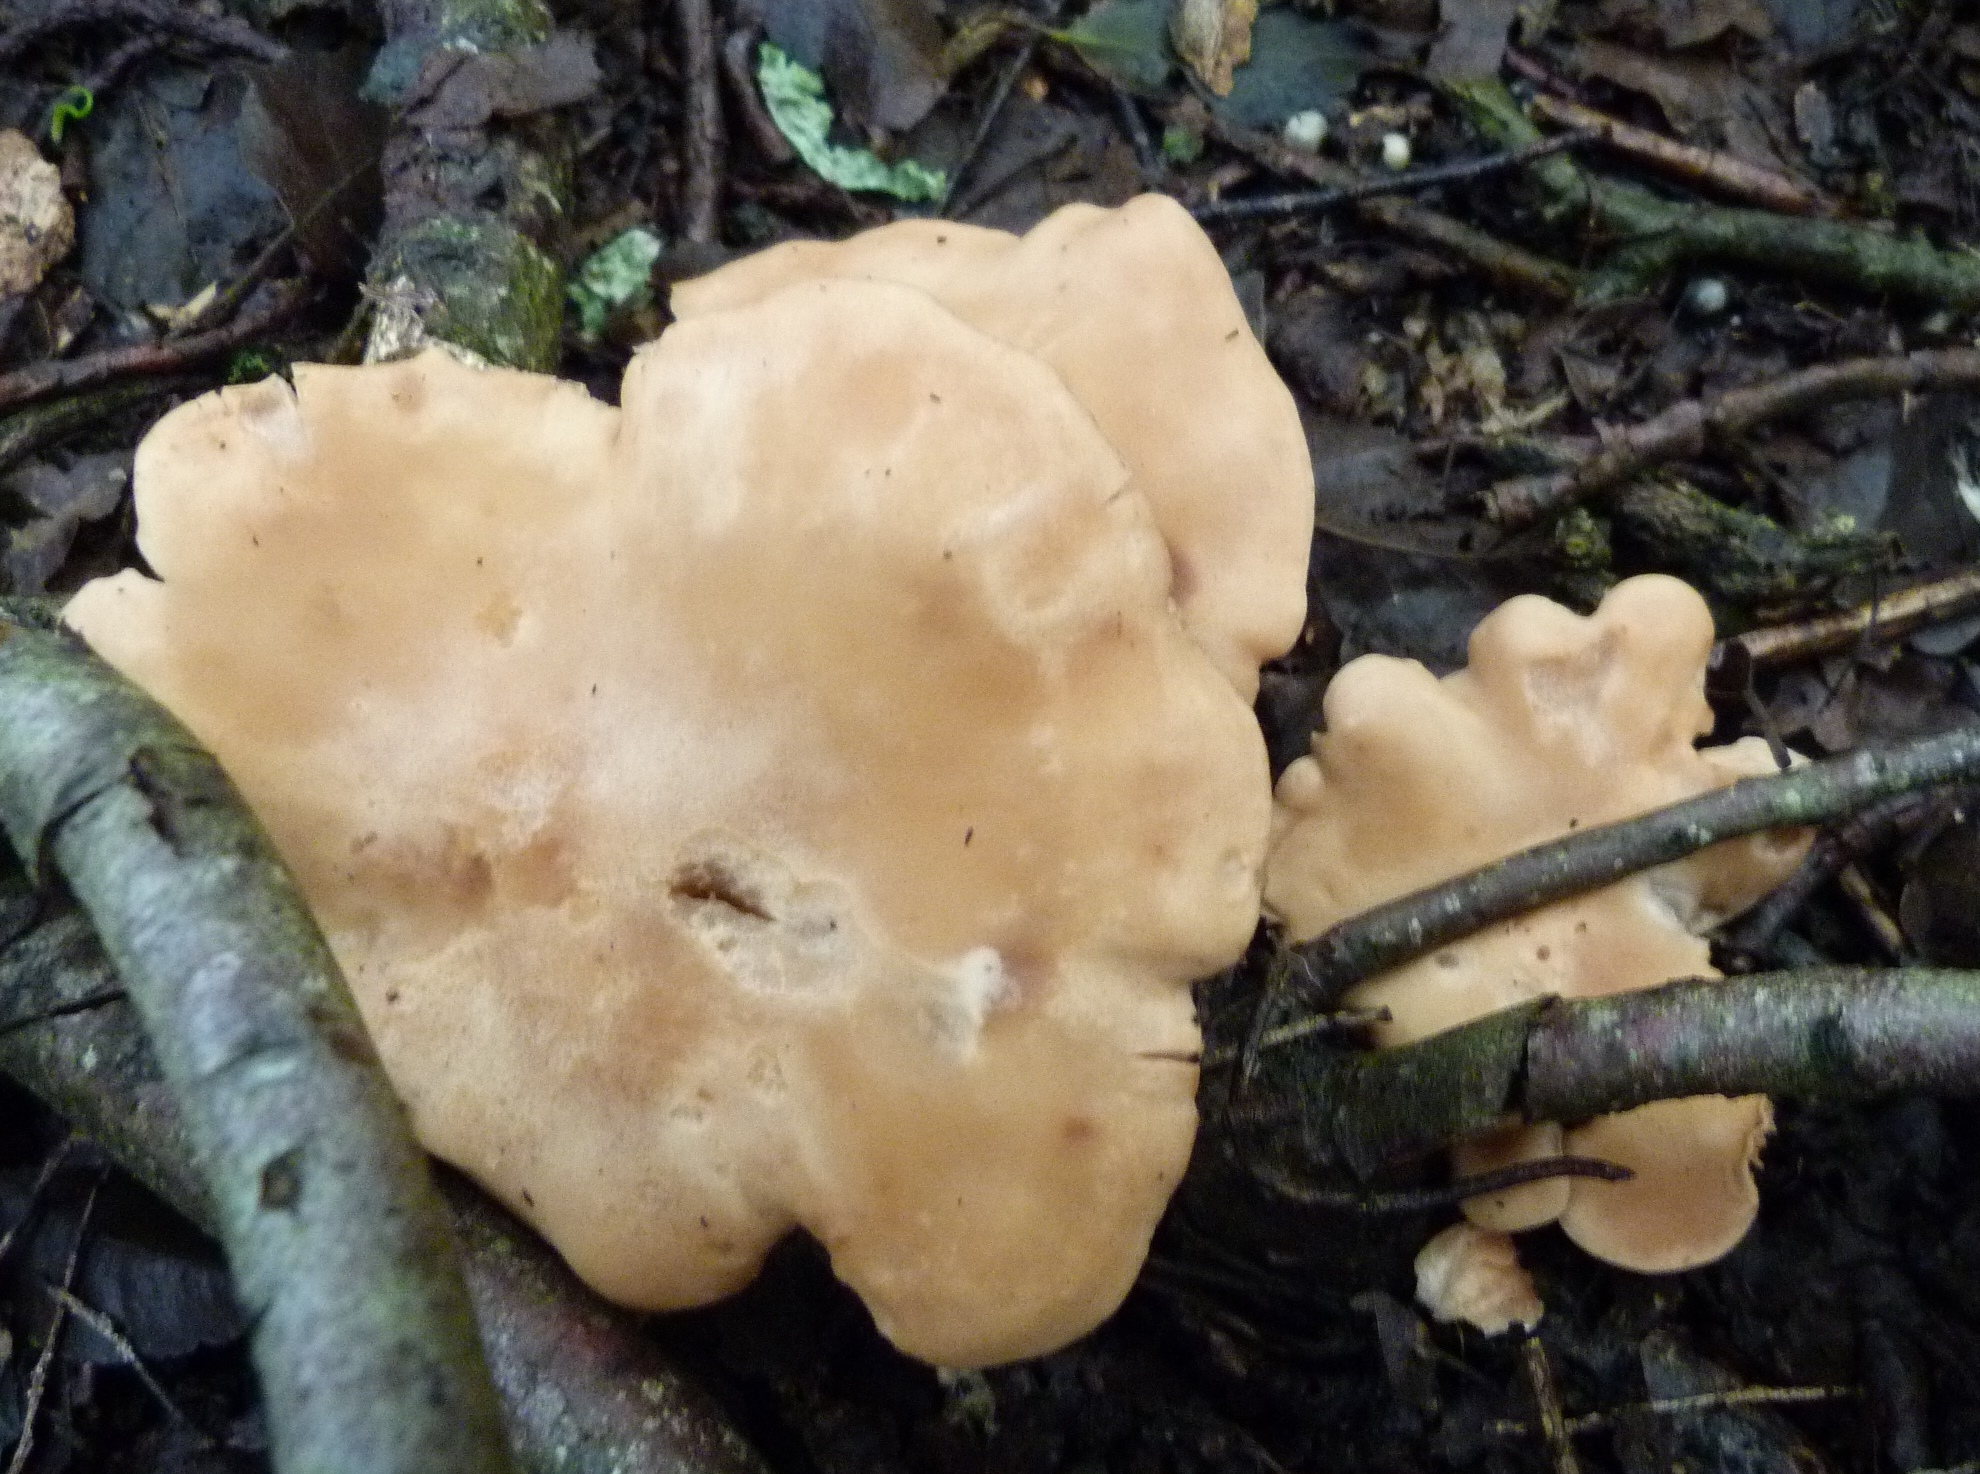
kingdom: Fungi
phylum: Basidiomycota
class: Agaricomycetes
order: Agaricales
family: Entolomataceae
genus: Clitopilus
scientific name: Clitopilus piperitus
